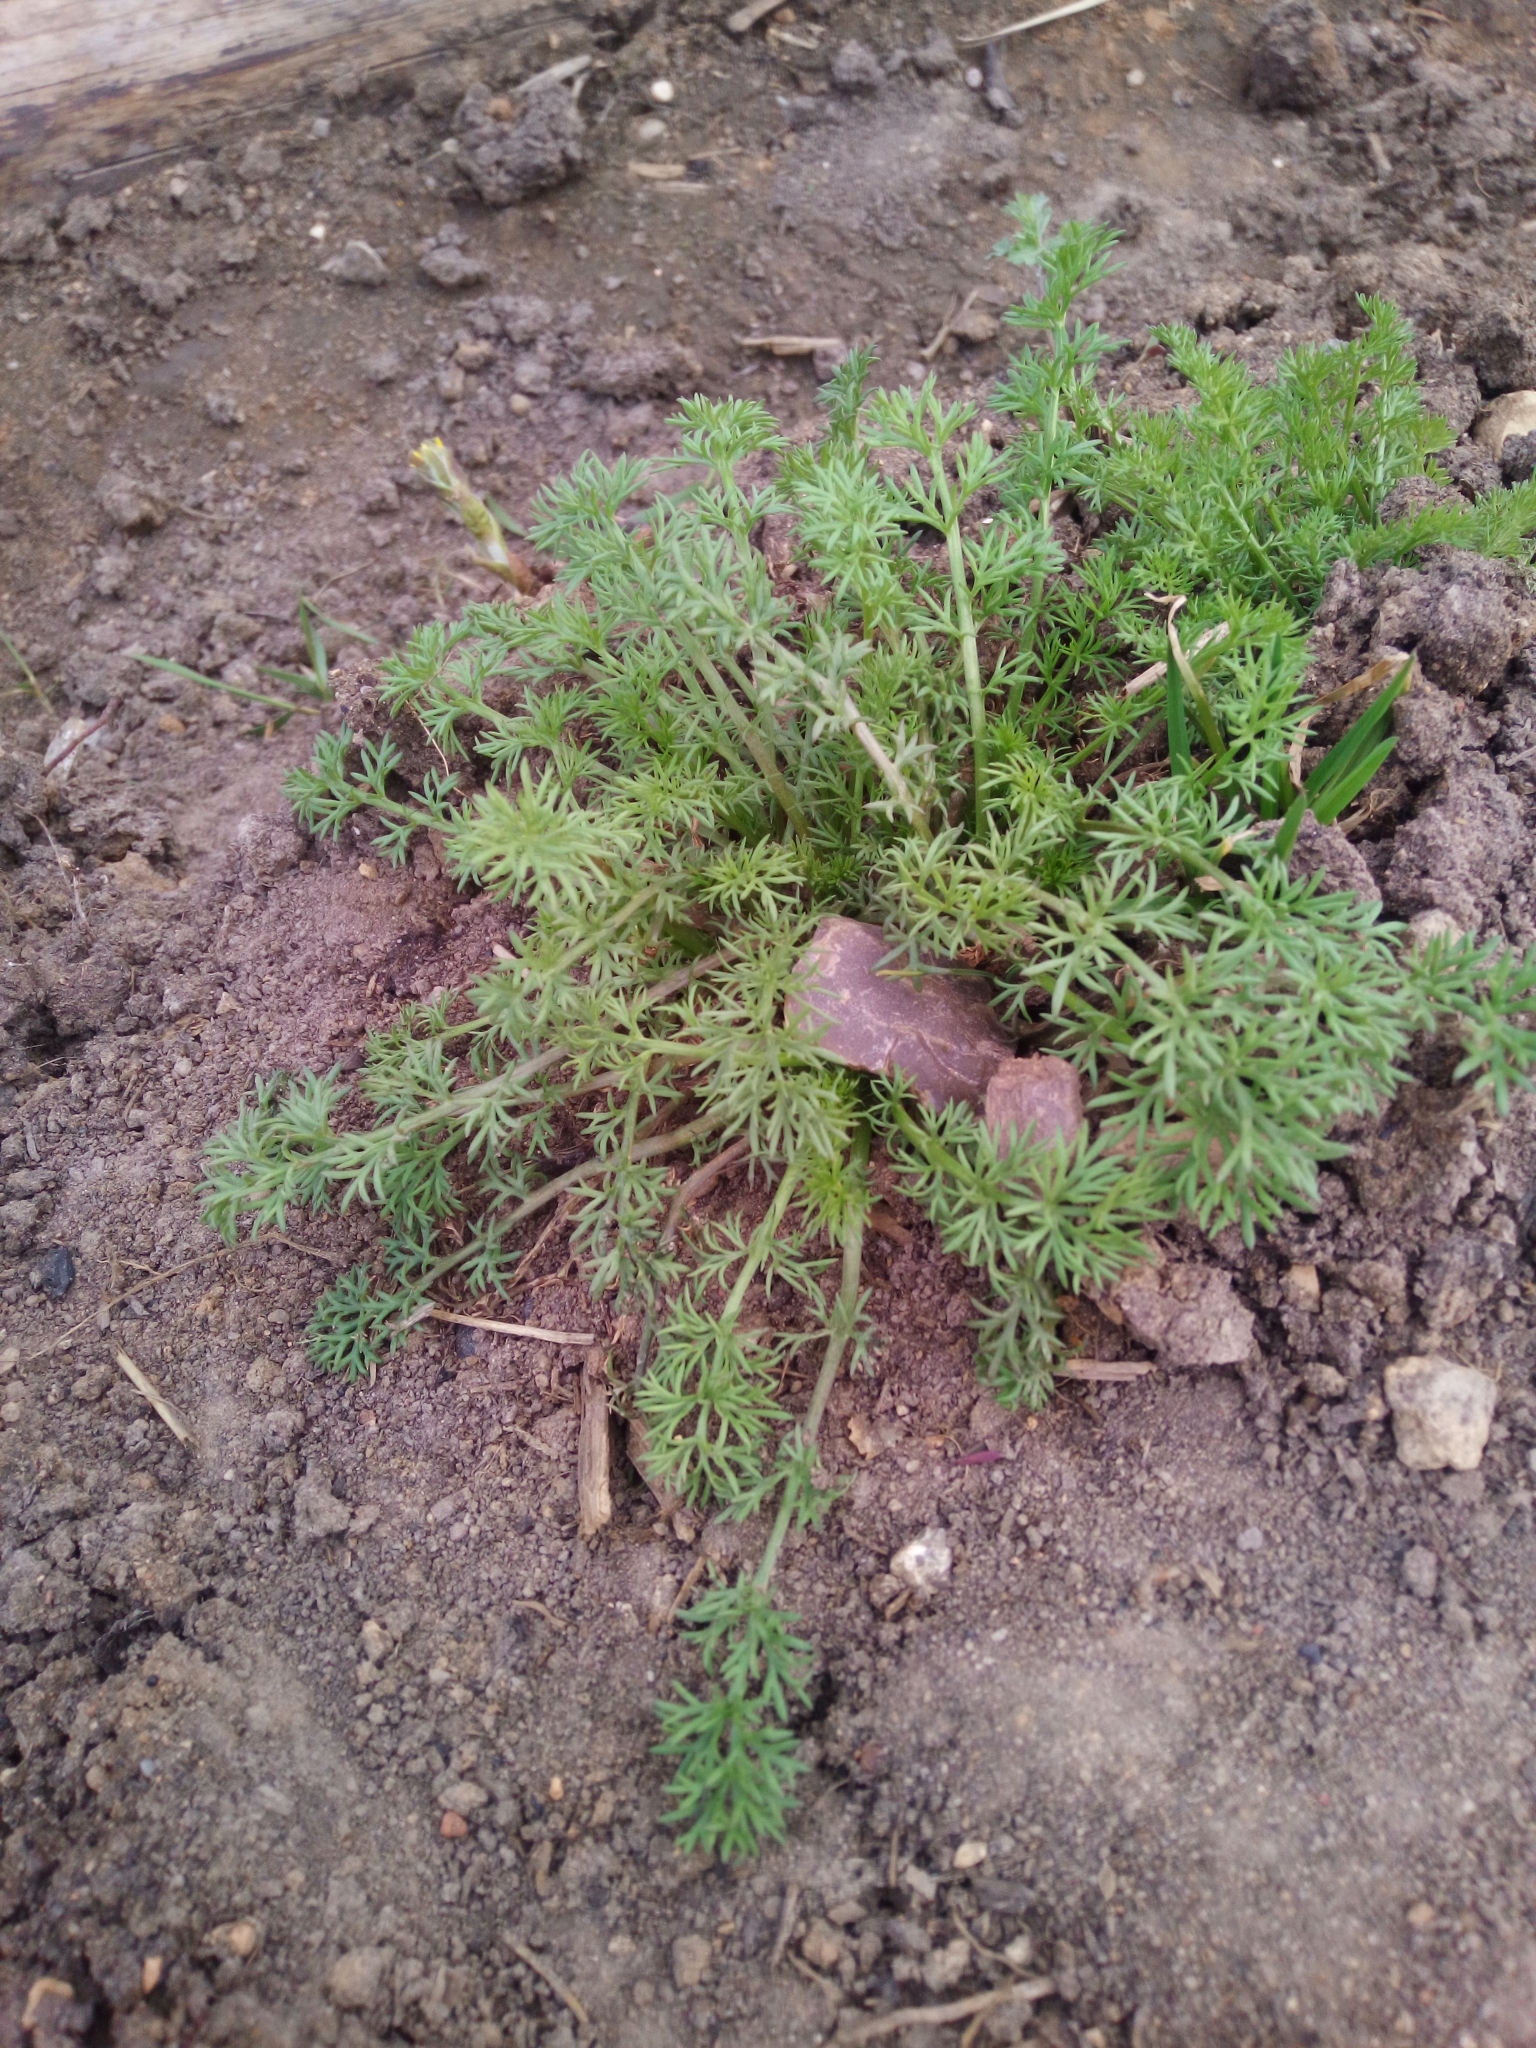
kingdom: Plantae
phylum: Tracheophyta
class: Magnoliopsida
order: Asterales
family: Asteraceae
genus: Tripleurospermum
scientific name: Tripleurospermum inodorum
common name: Scentless mayweed
